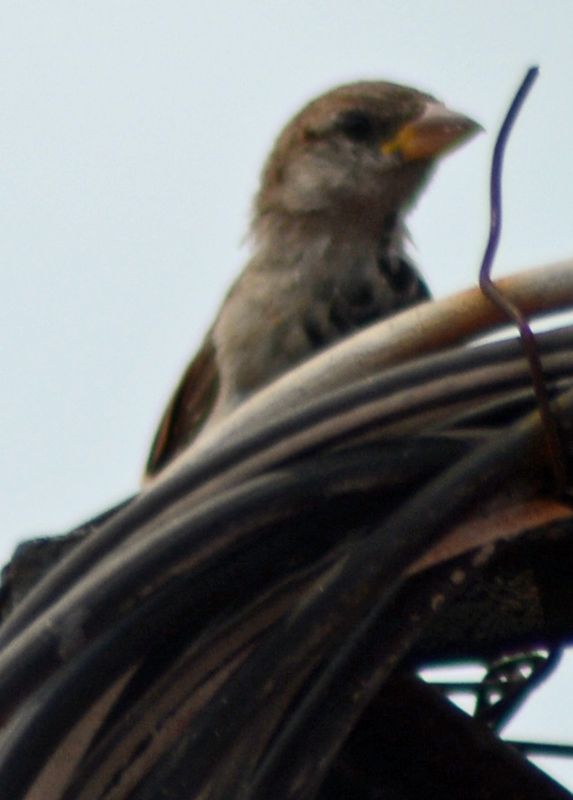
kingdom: Animalia
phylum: Chordata
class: Aves
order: Passeriformes
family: Passeridae
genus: Passer
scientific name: Passer domesticus
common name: House sparrow
